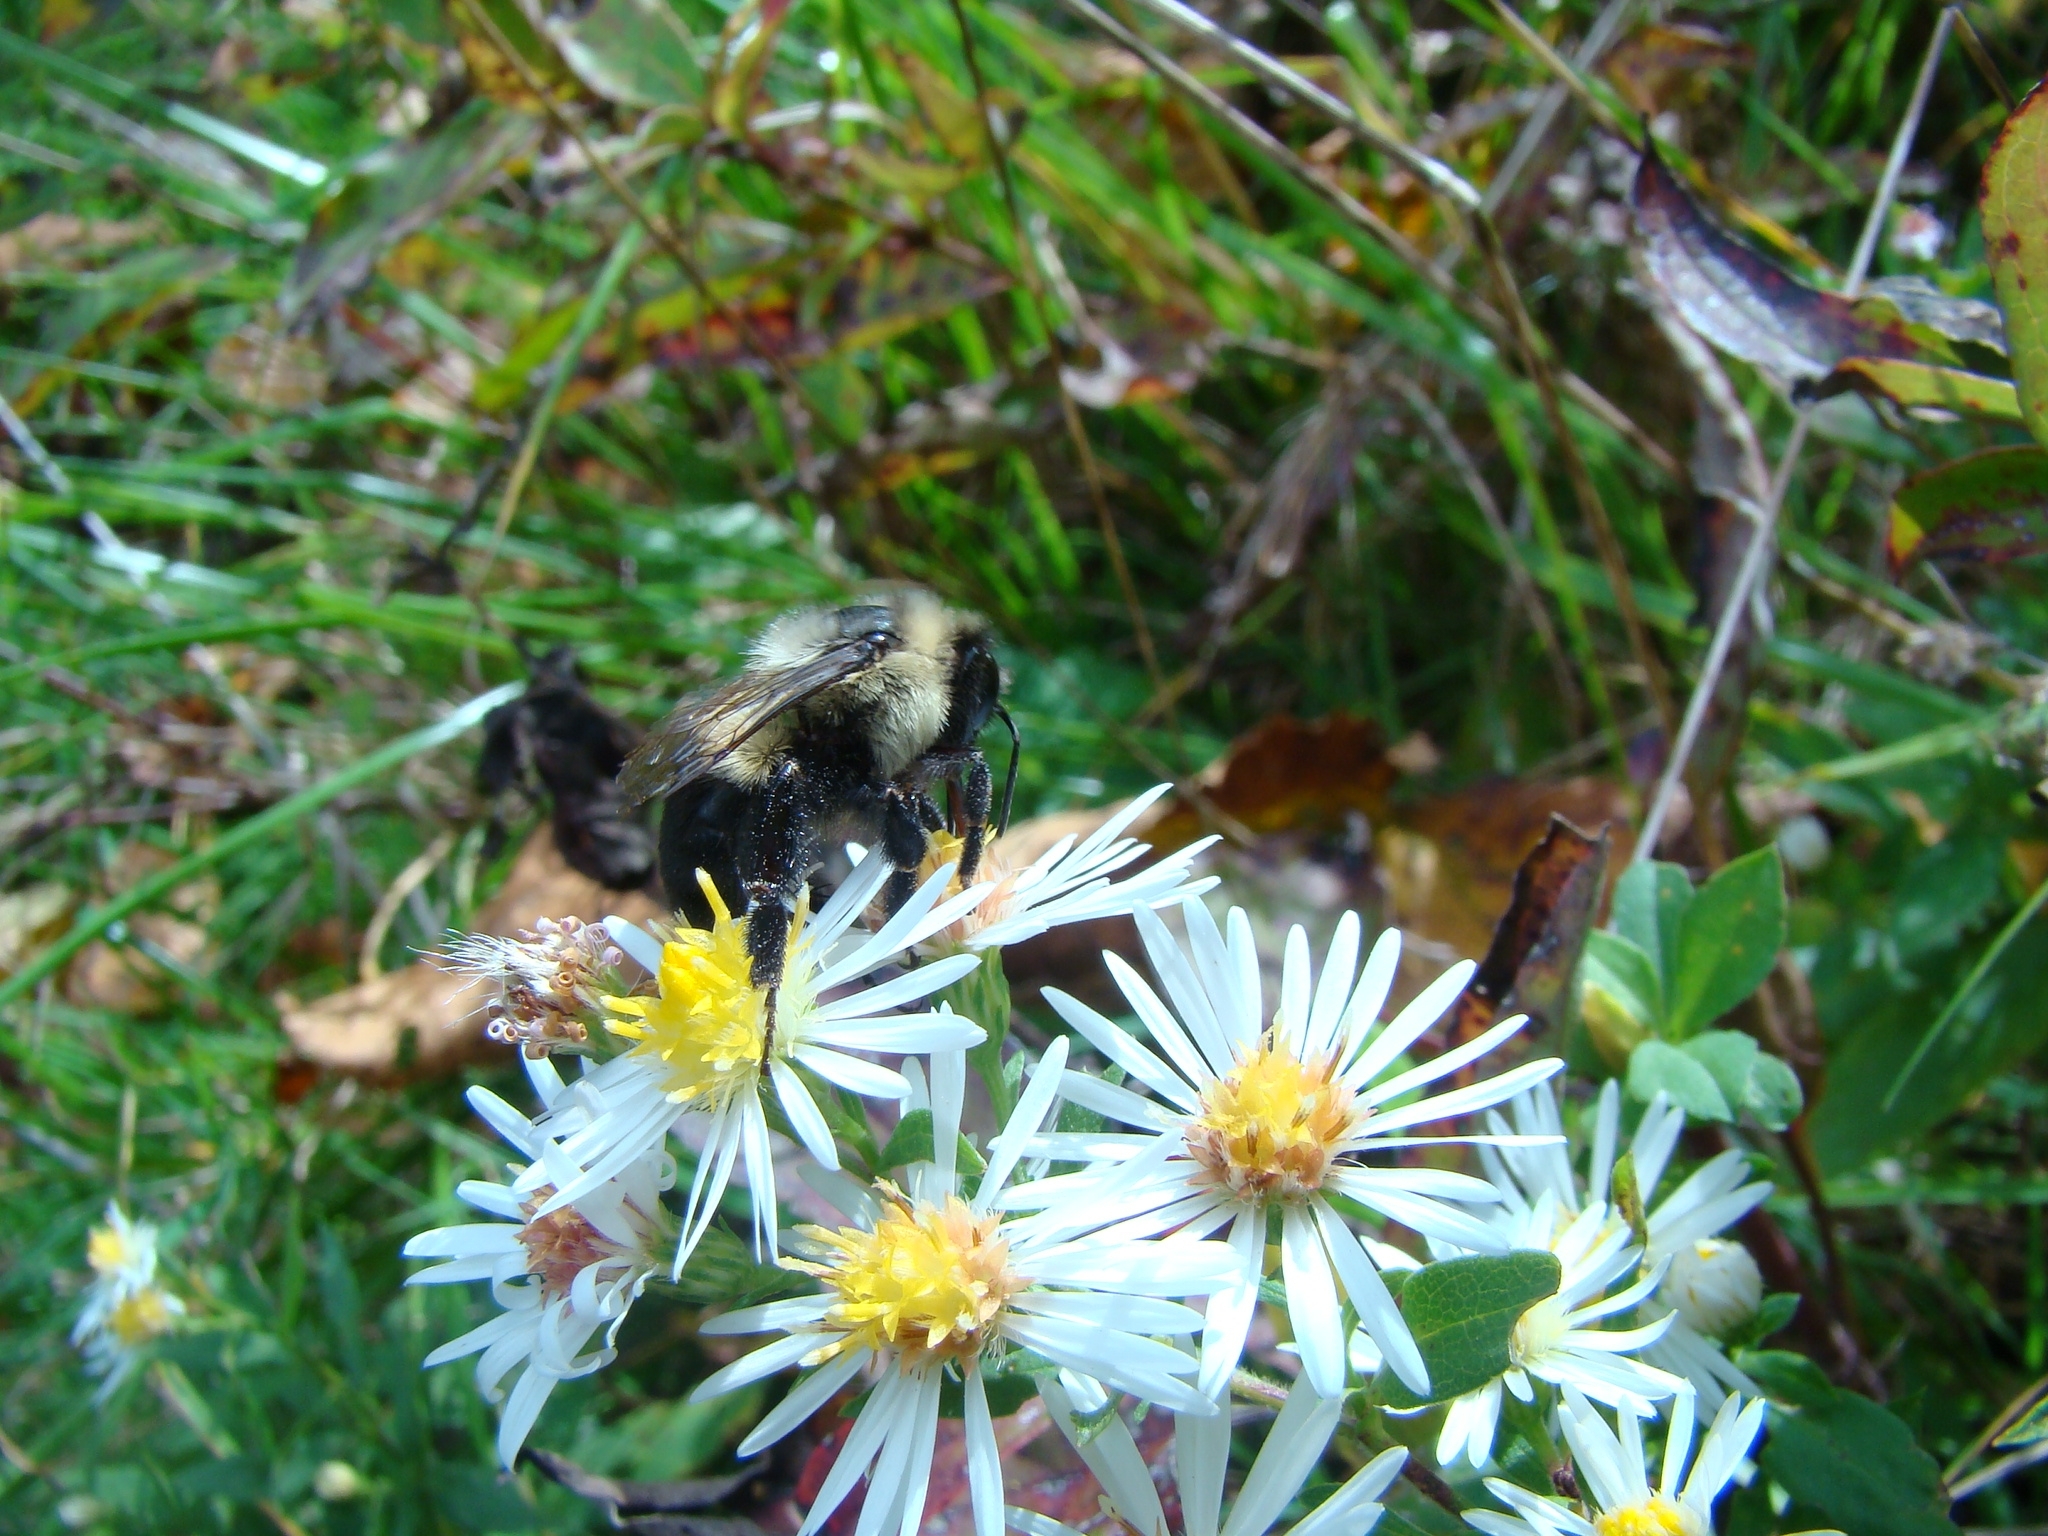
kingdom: Animalia
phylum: Arthropoda
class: Insecta
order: Hymenoptera
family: Apidae
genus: Bombus
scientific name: Bombus impatiens
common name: Common eastern bumble bee
